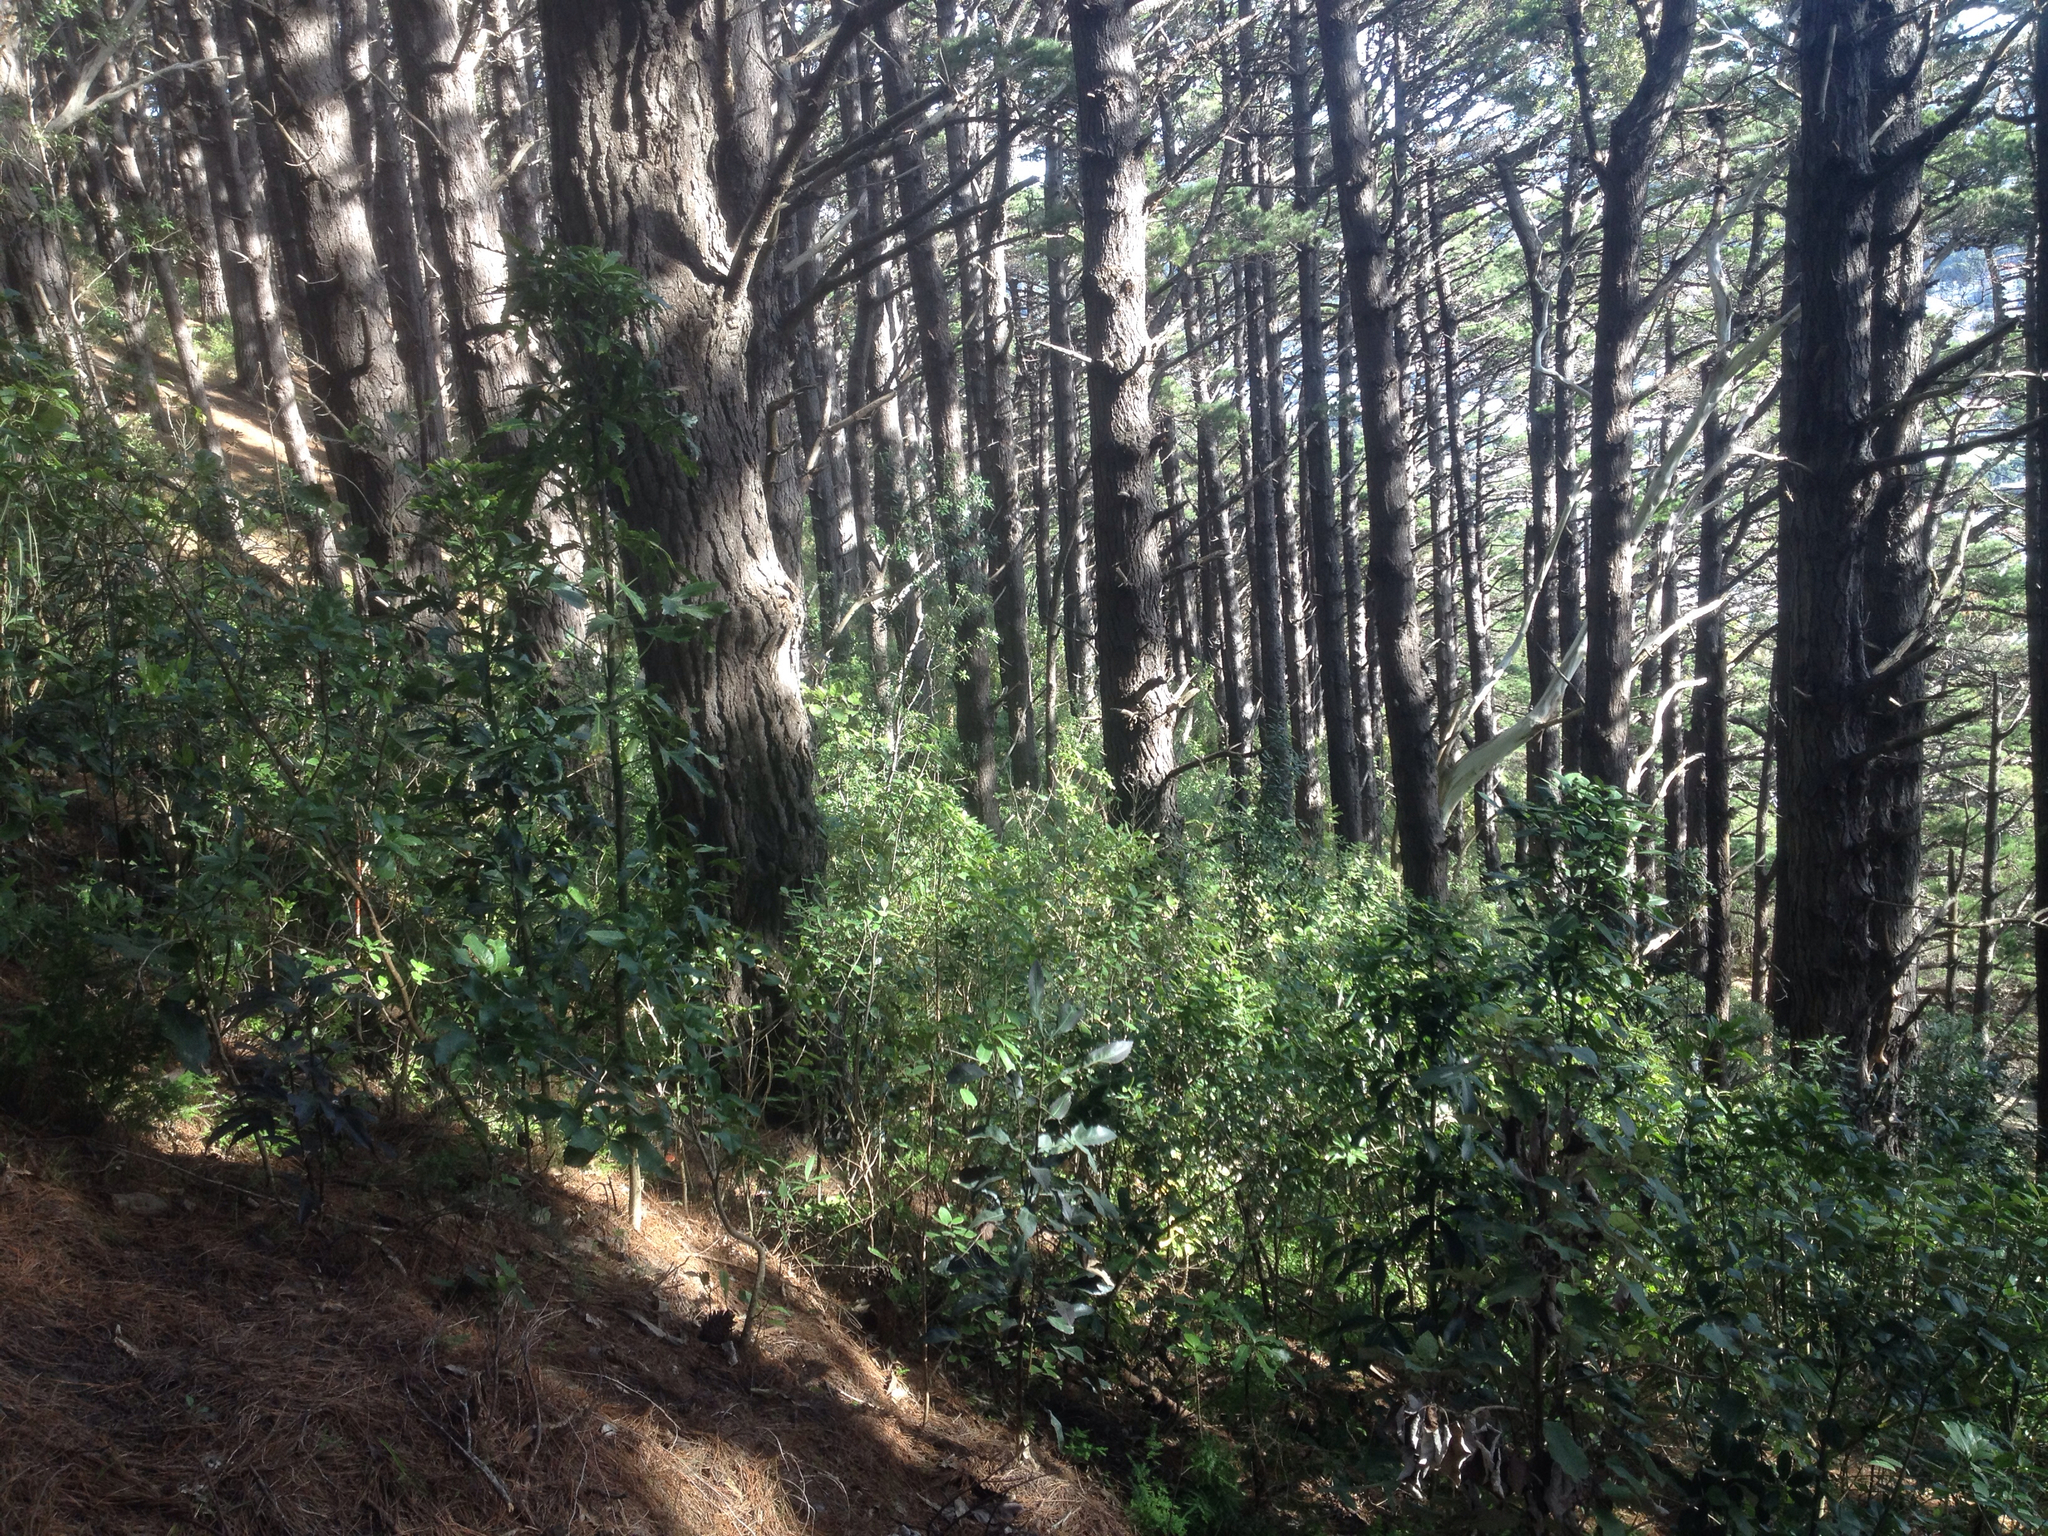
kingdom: Plantae
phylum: Tracheophyta
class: Pinopsida
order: Pinales
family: Pinaceae
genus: Pinus
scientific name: Pinus radiata
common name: Monterey pine
